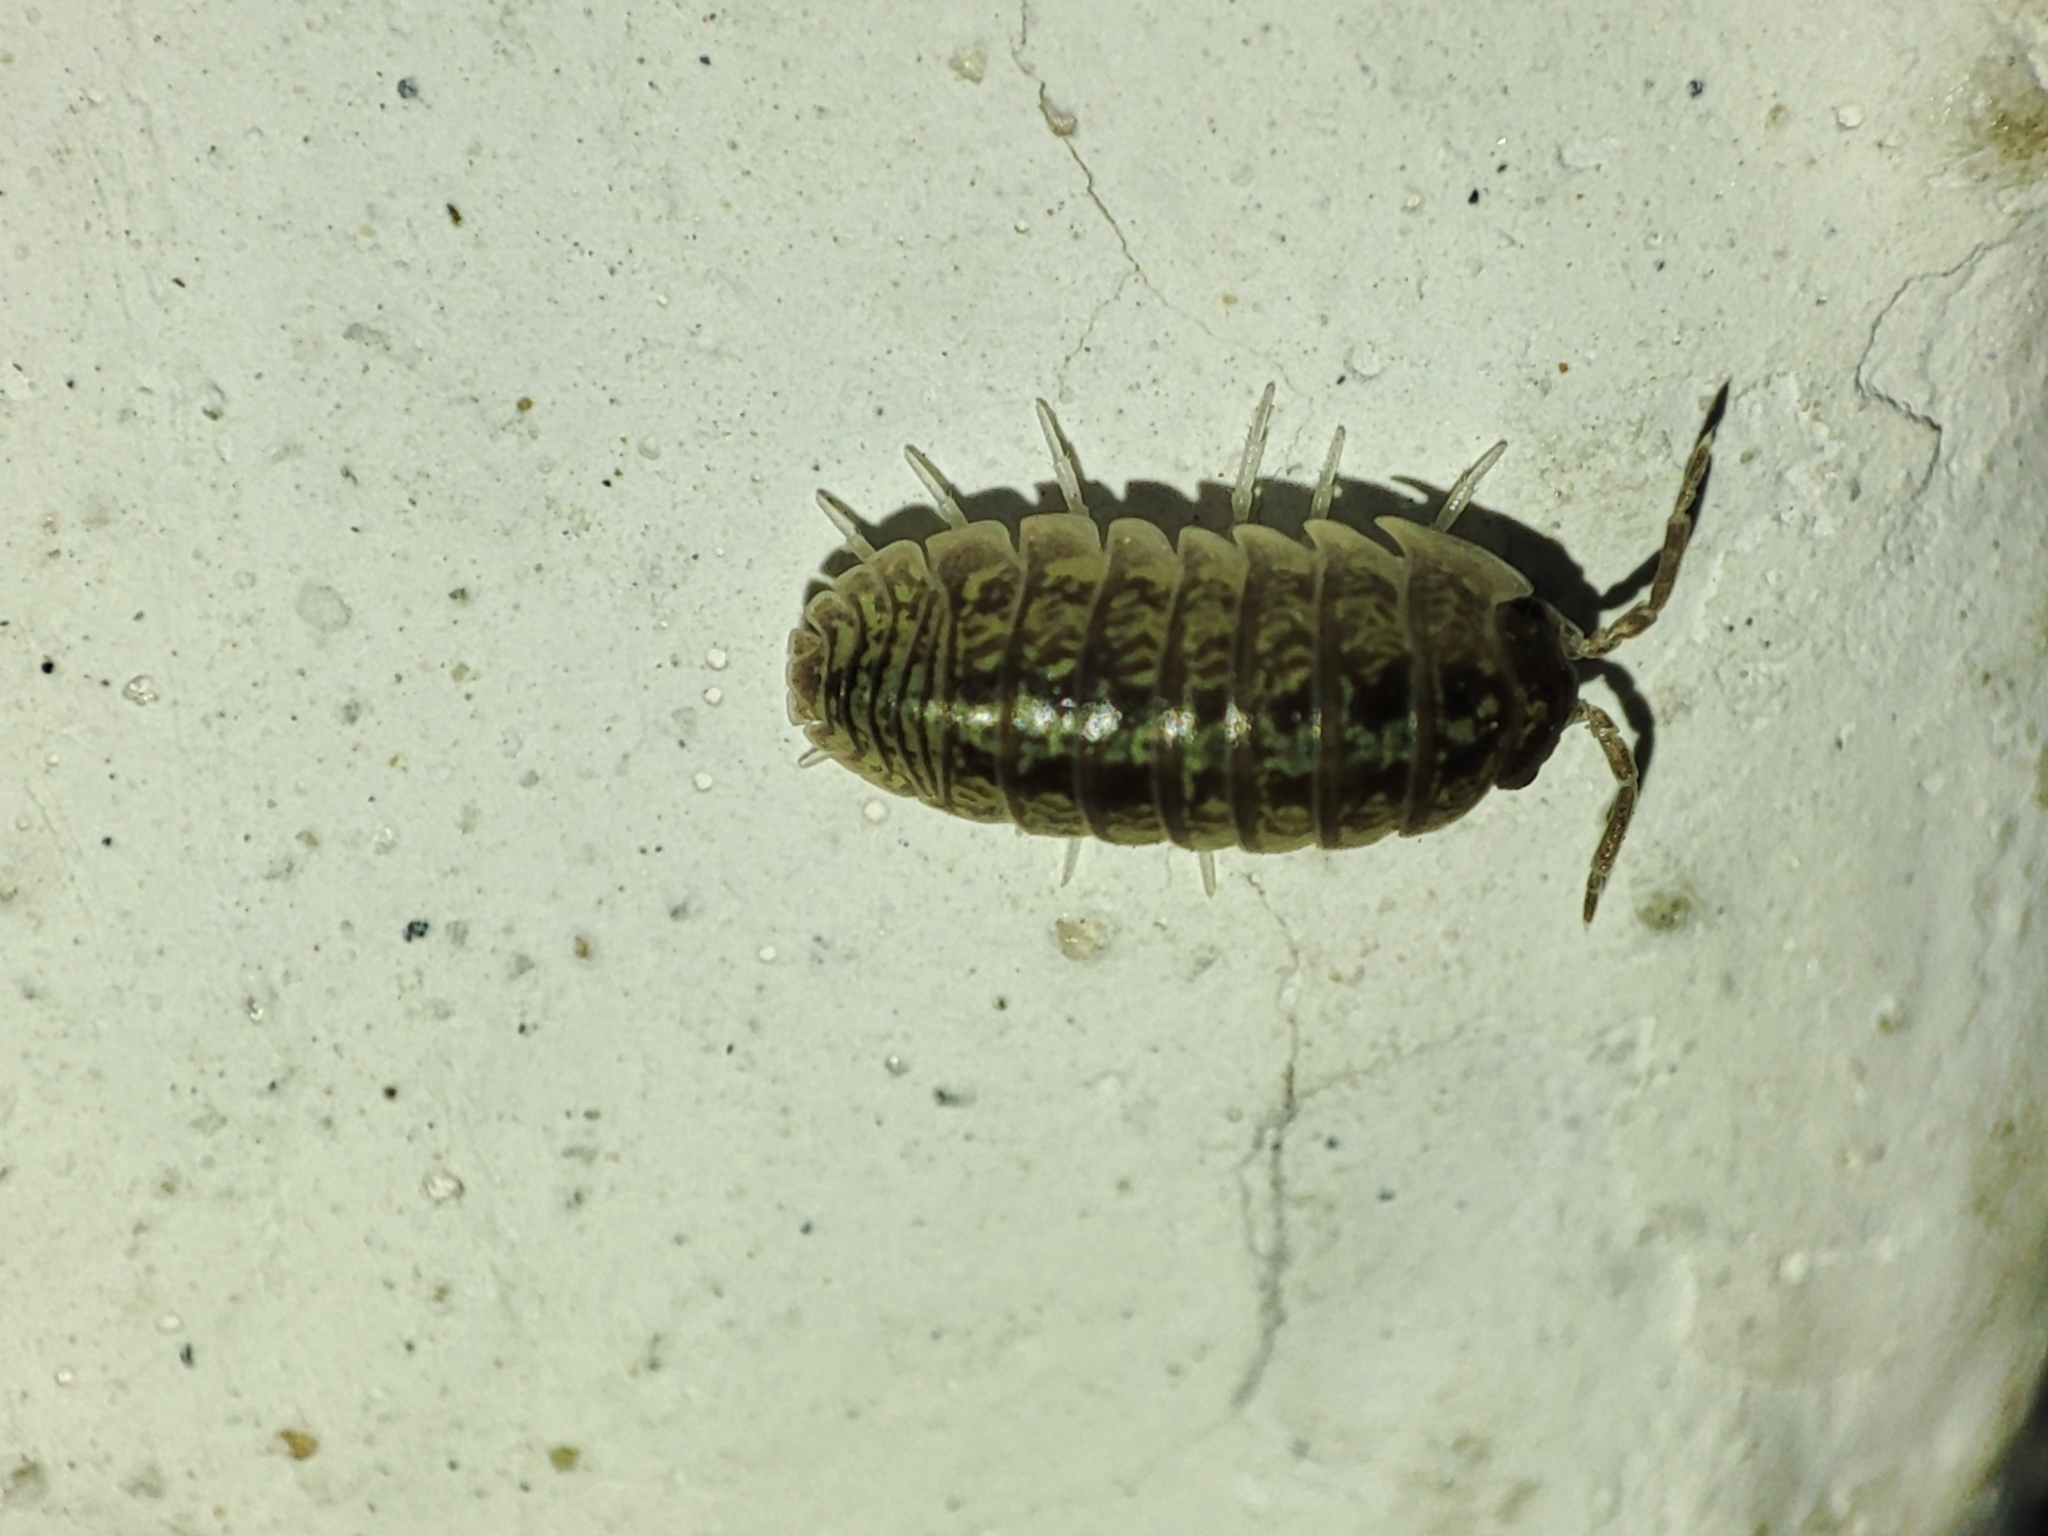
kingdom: Animalia
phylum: Arthropoda
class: Malacostraca
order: Isopoda
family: Armadillidiidae
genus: Armadillidium
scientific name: Armadillidium versicolor
